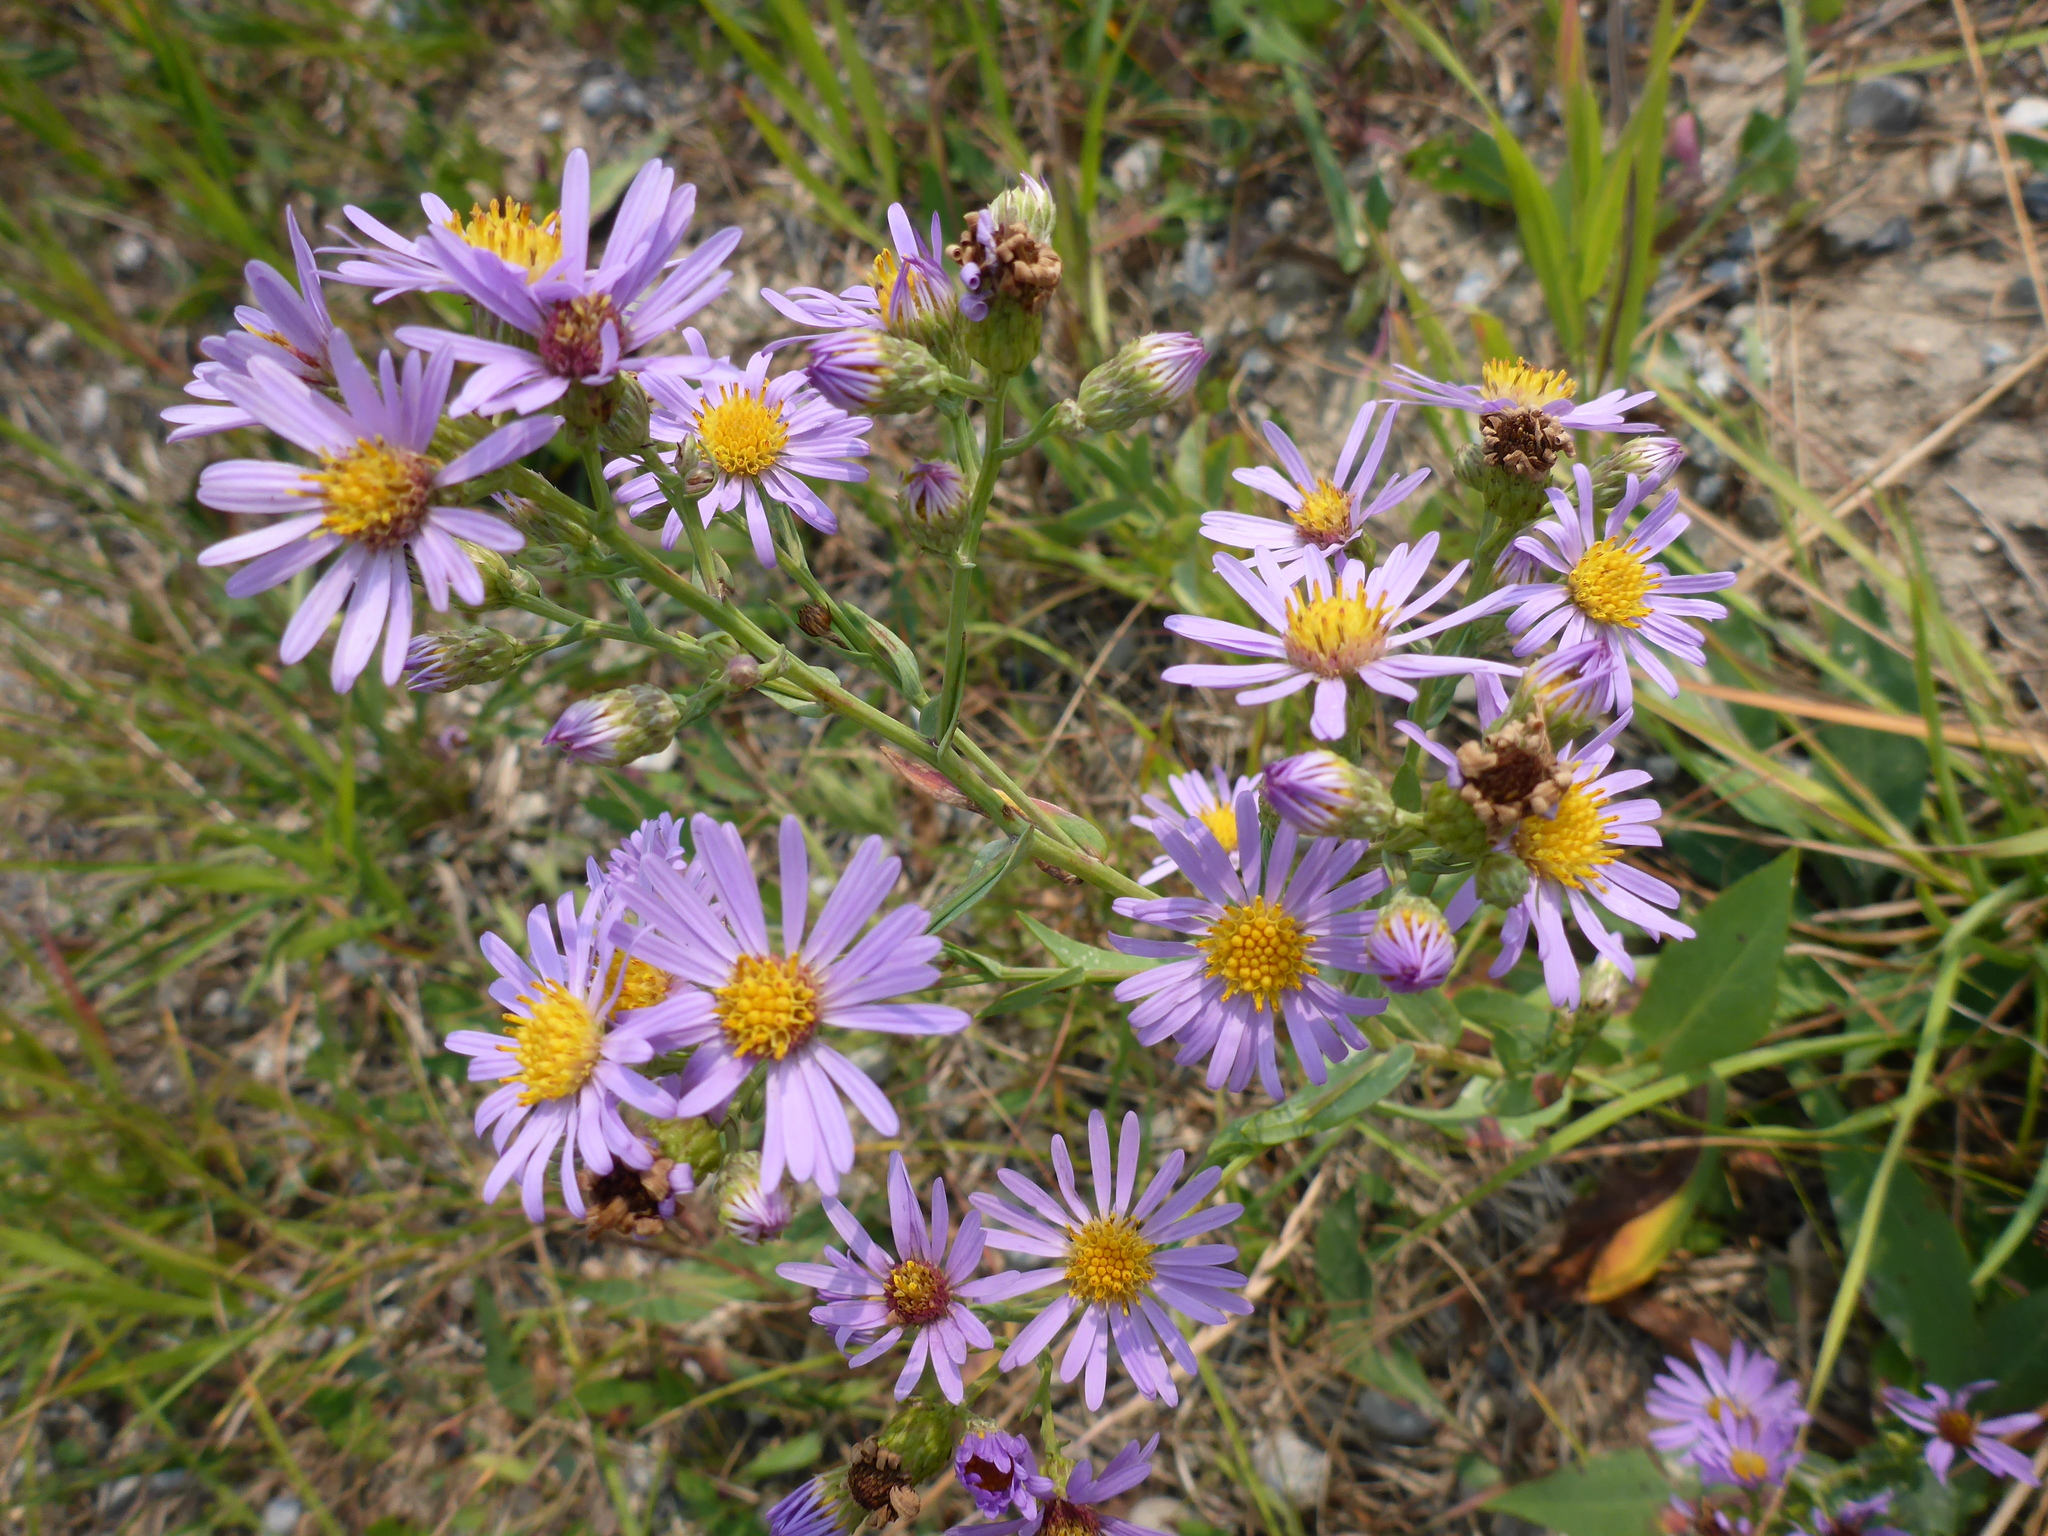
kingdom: Plantae
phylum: Tracheophyta
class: Magnoliopsida
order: Asterales
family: Asteraceae
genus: Symphyotrichum
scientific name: Symphyotrichum laeve
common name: Glaucous aster
